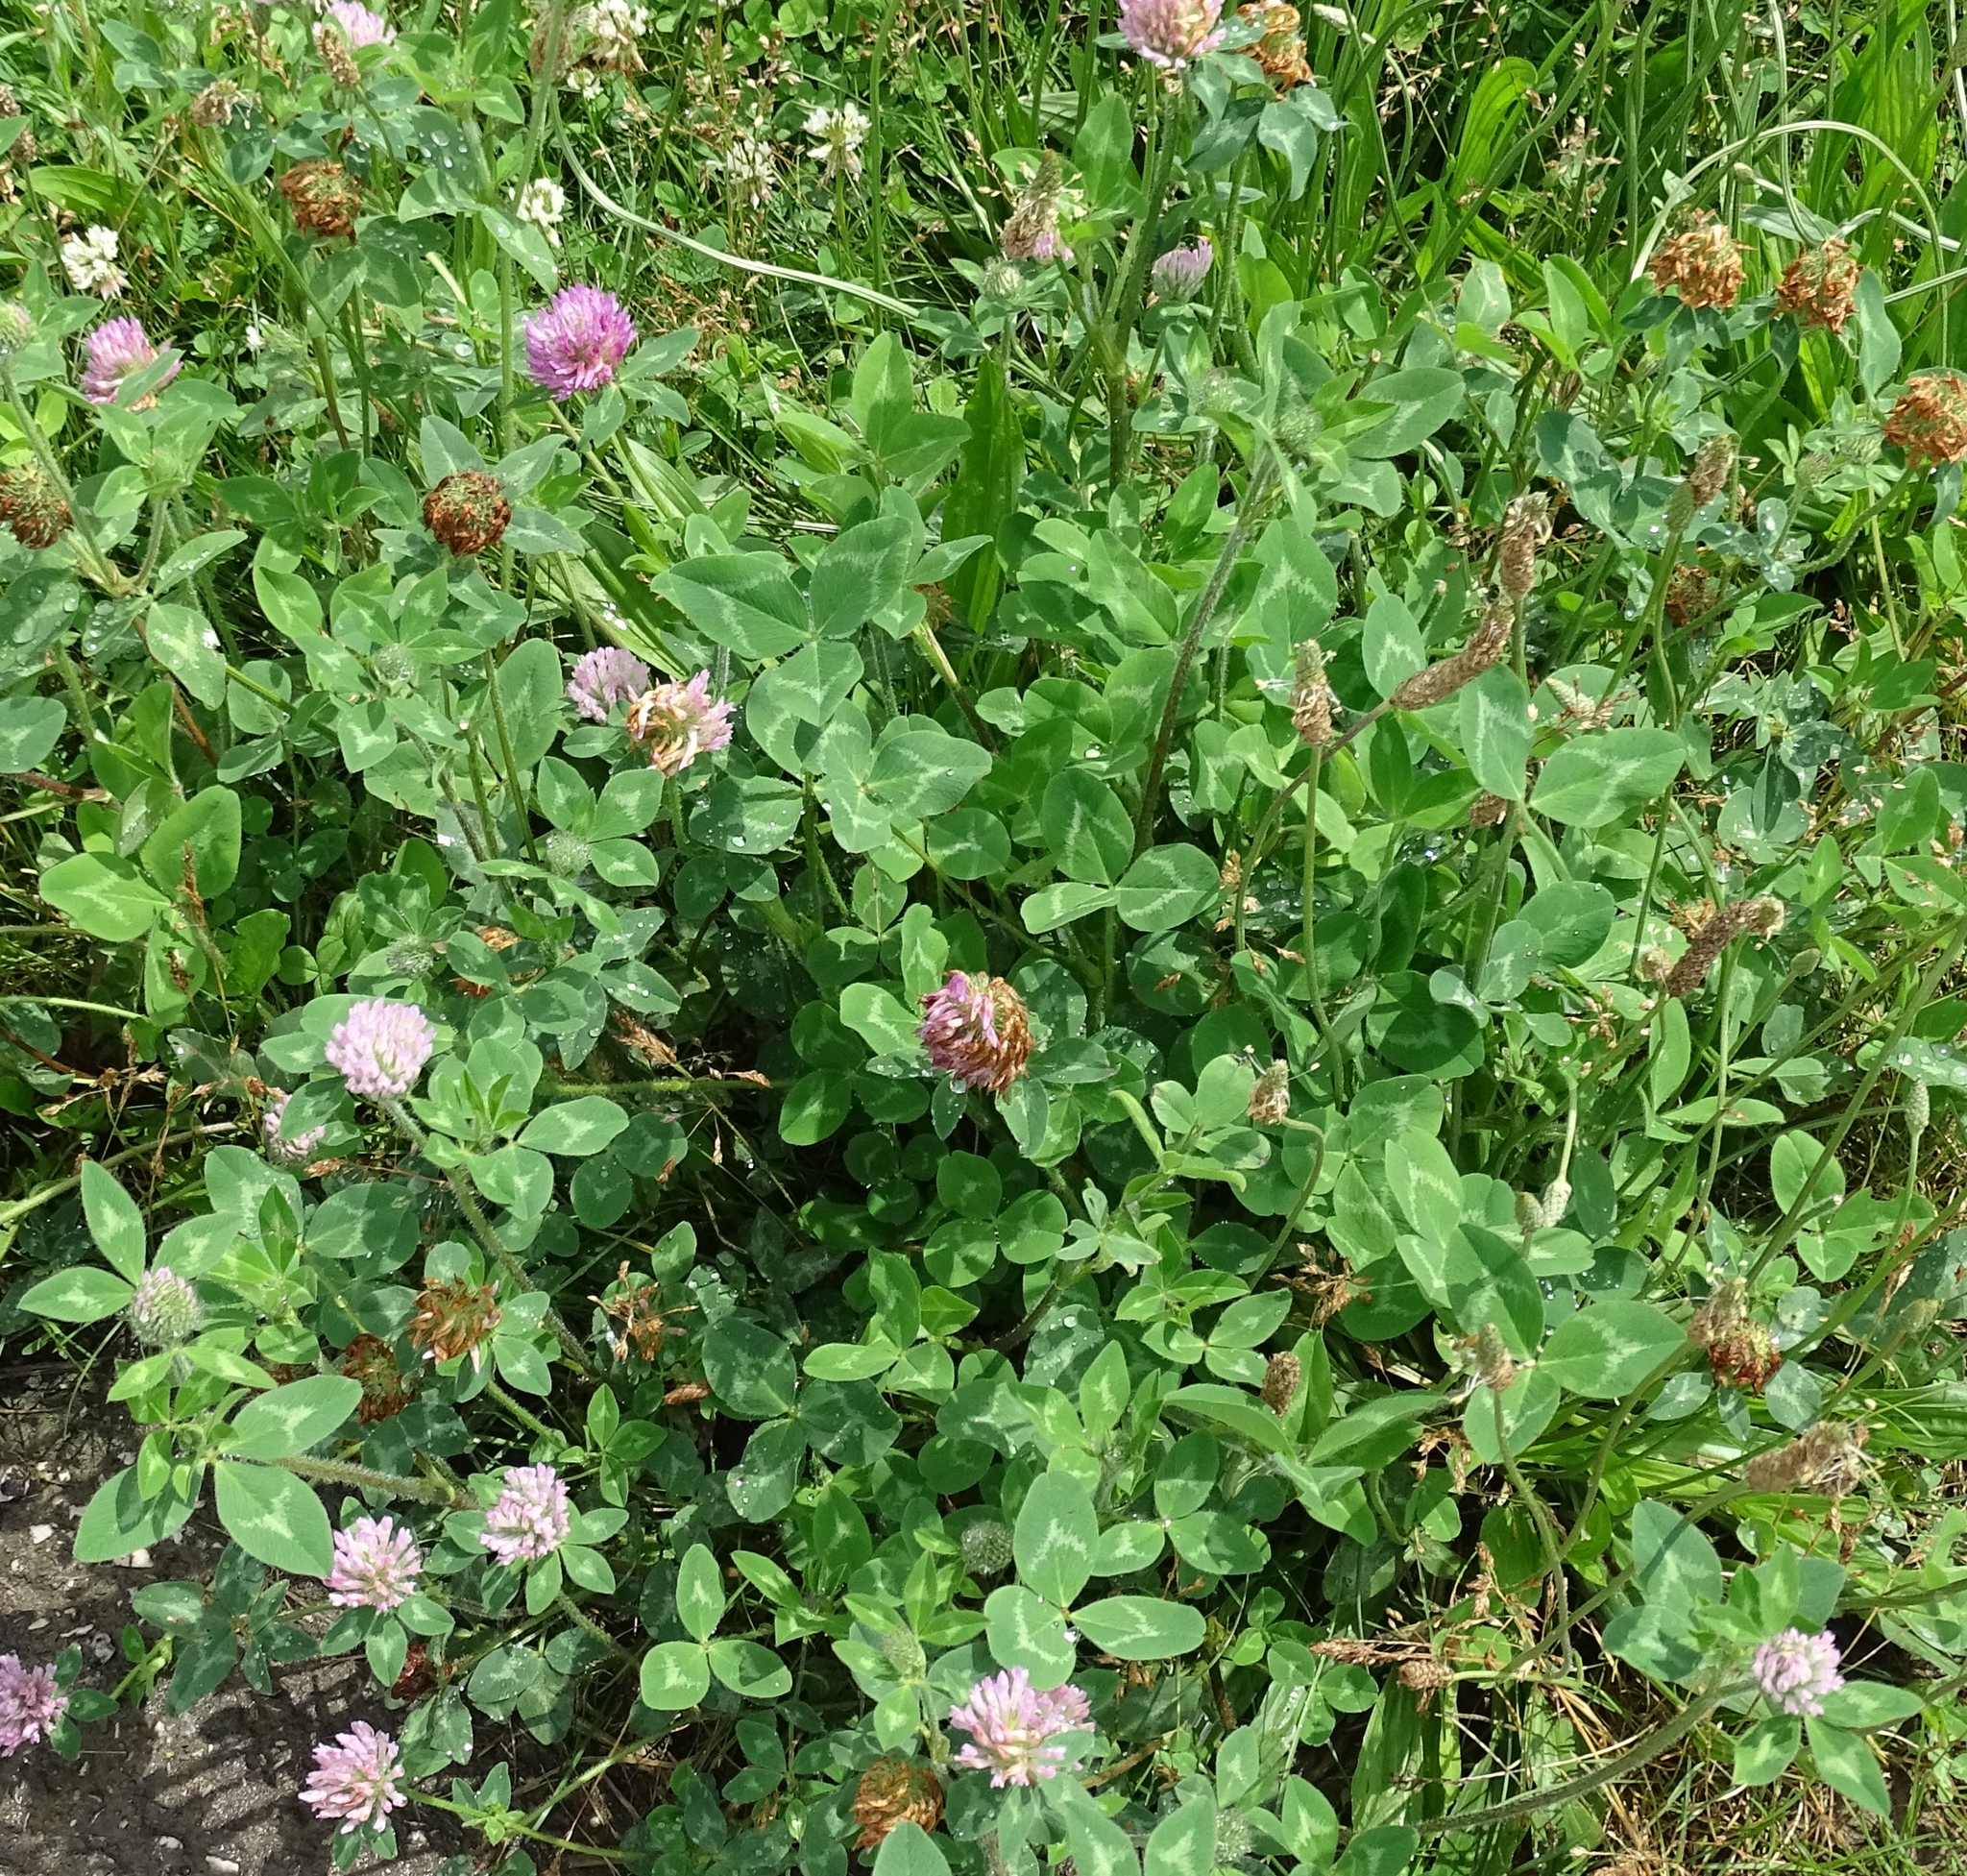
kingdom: Plantae
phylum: Tracheophyta
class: Magnoliopsida
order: Fabales
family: Fabaceae
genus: Trifolium
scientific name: Trifolium pratense
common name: Red clover
